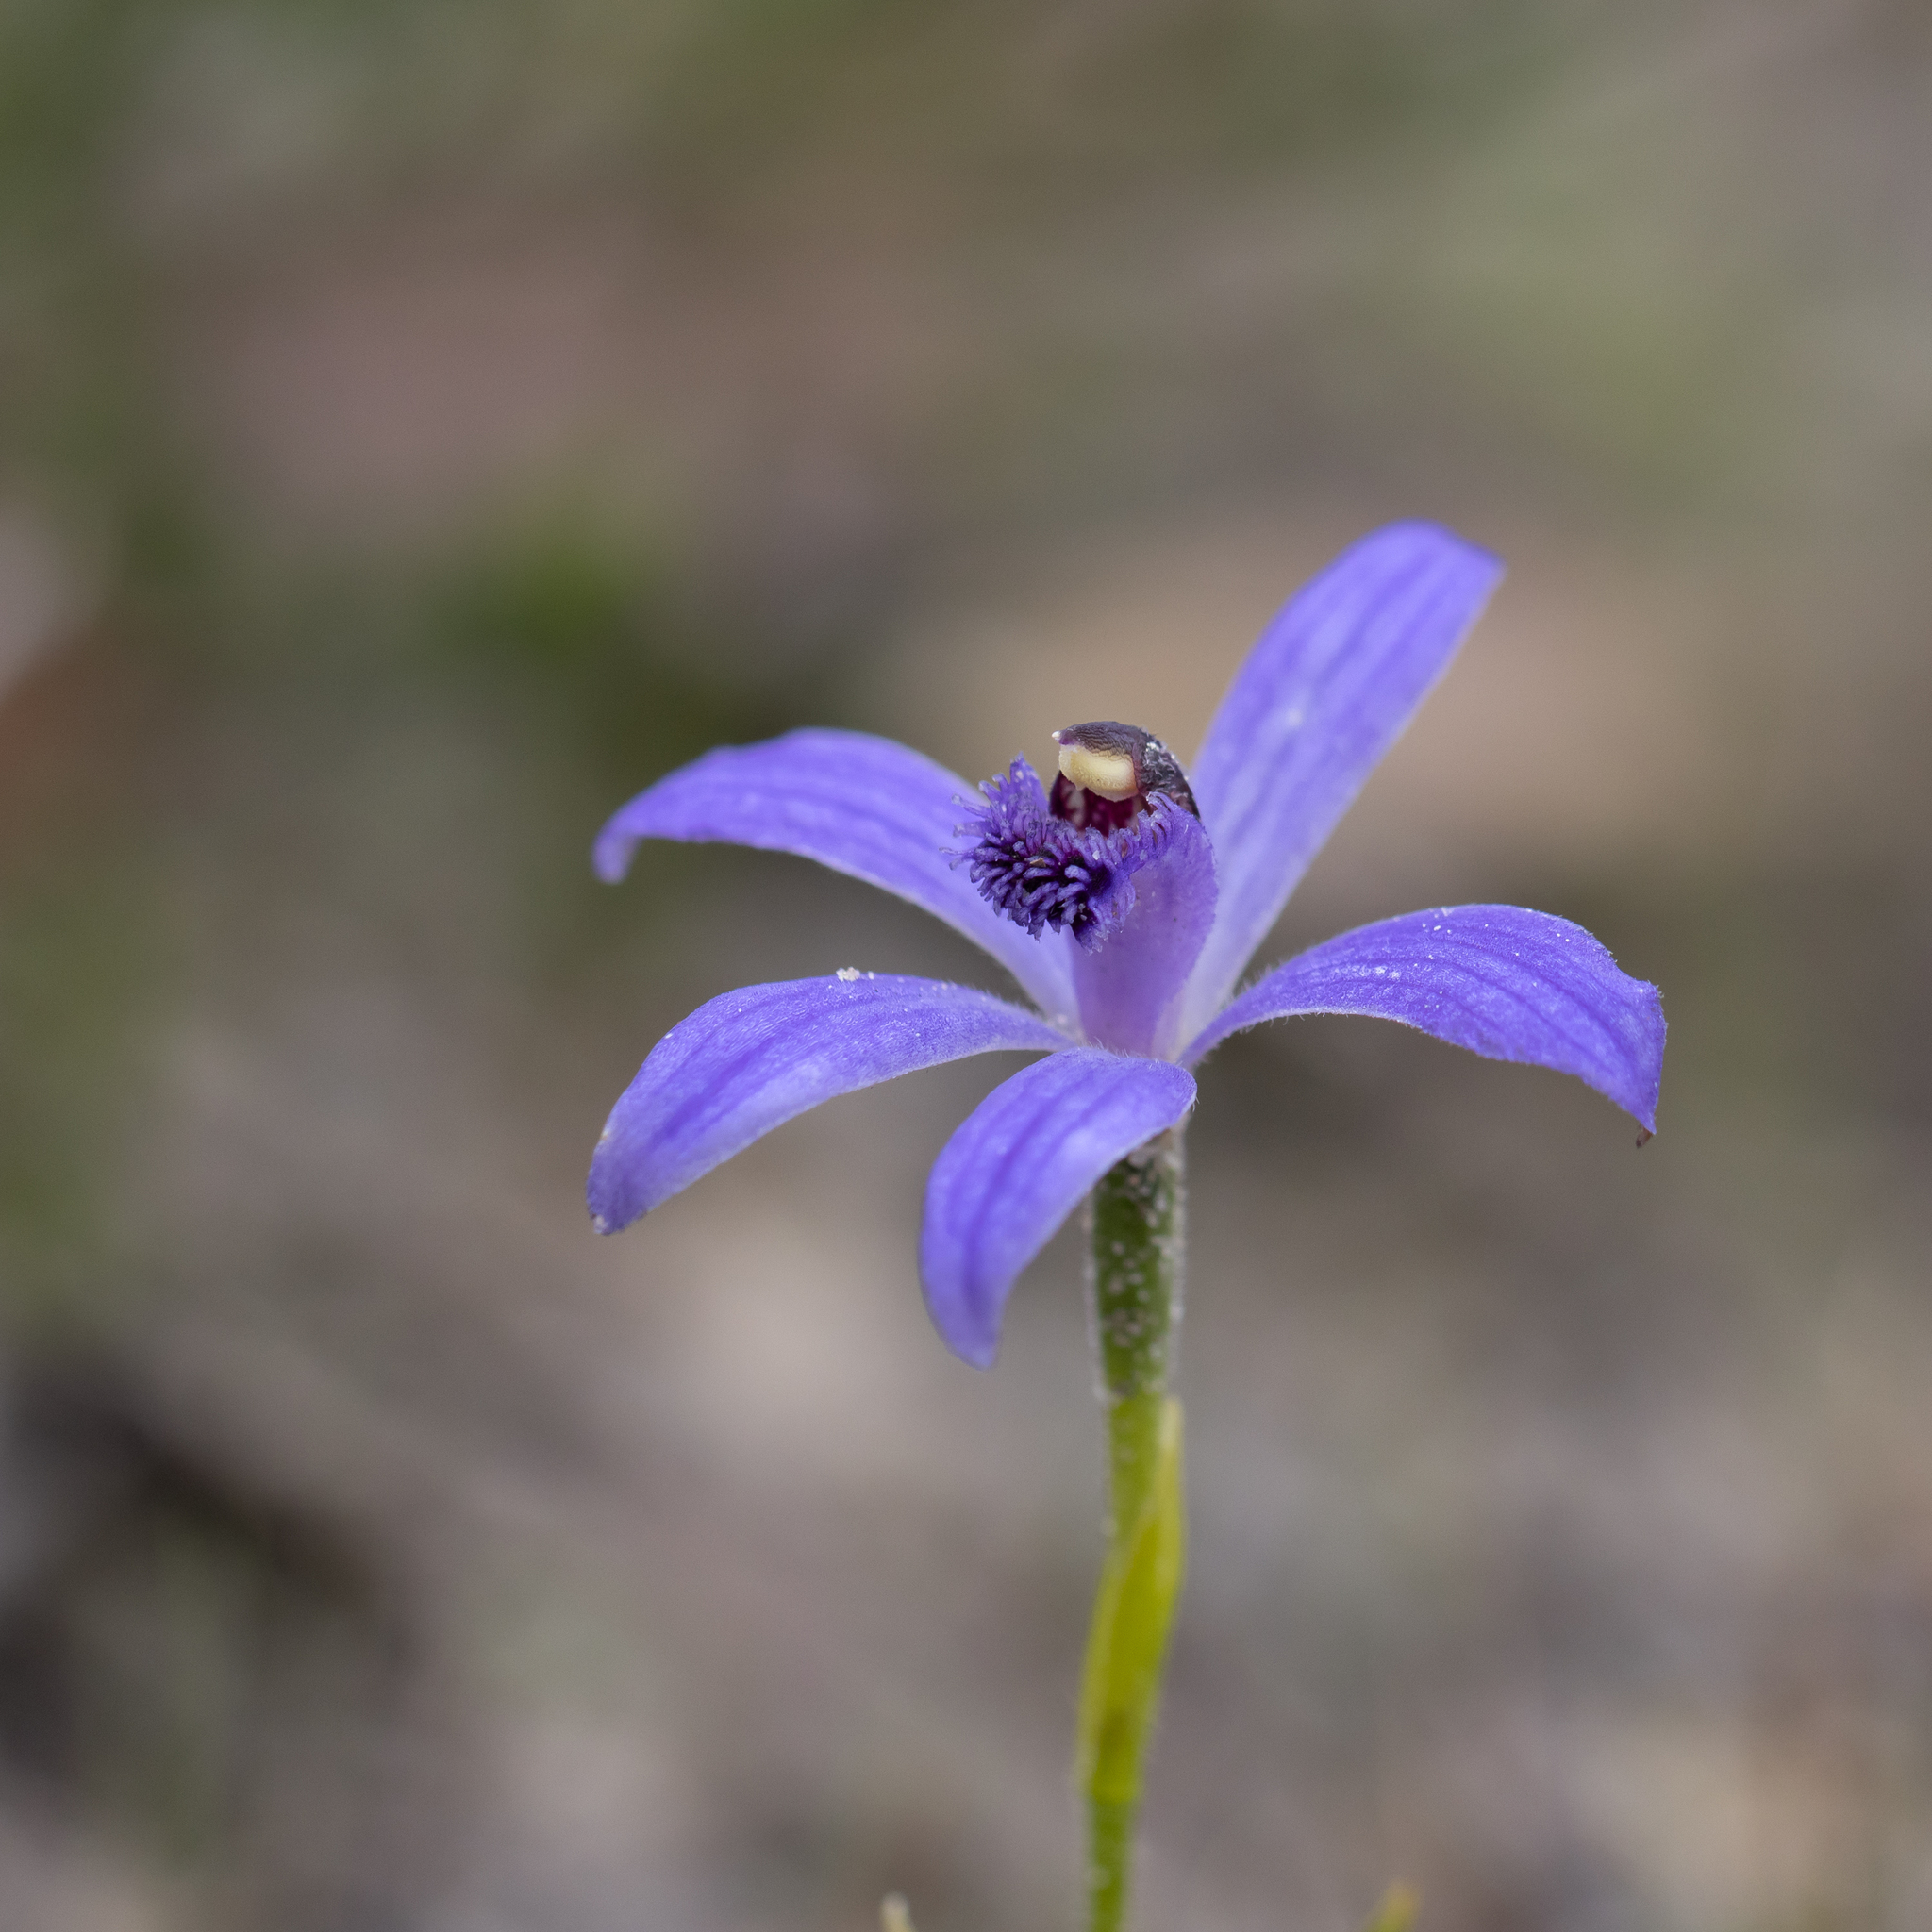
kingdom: Plantae
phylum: Tracheophyta
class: Liliopsida
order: Asparagales
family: Orchidaceae
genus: Pheladenia
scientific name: Pheladenia deformis
